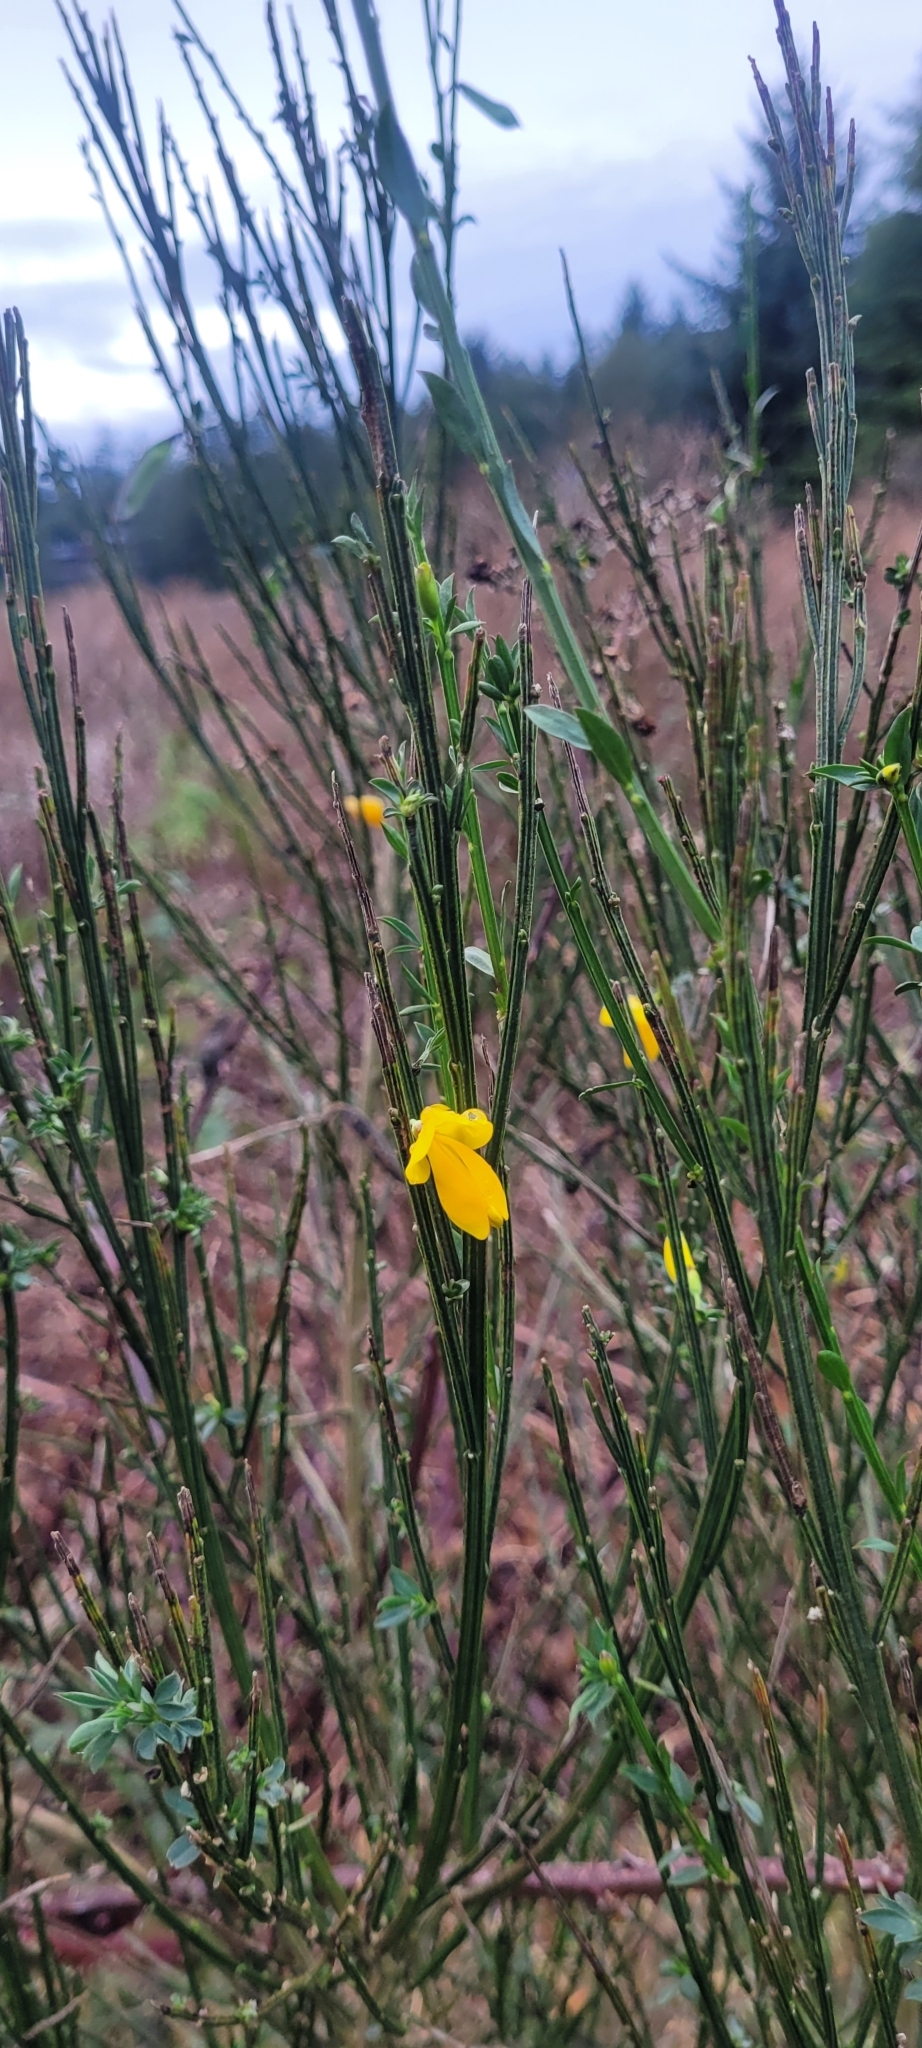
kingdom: Plantae
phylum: Tracheophyta
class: Magnoliopsida
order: Fabales
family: Fabaceae
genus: Cytisus
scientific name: Cytisus scoparius
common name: Scotch broom
